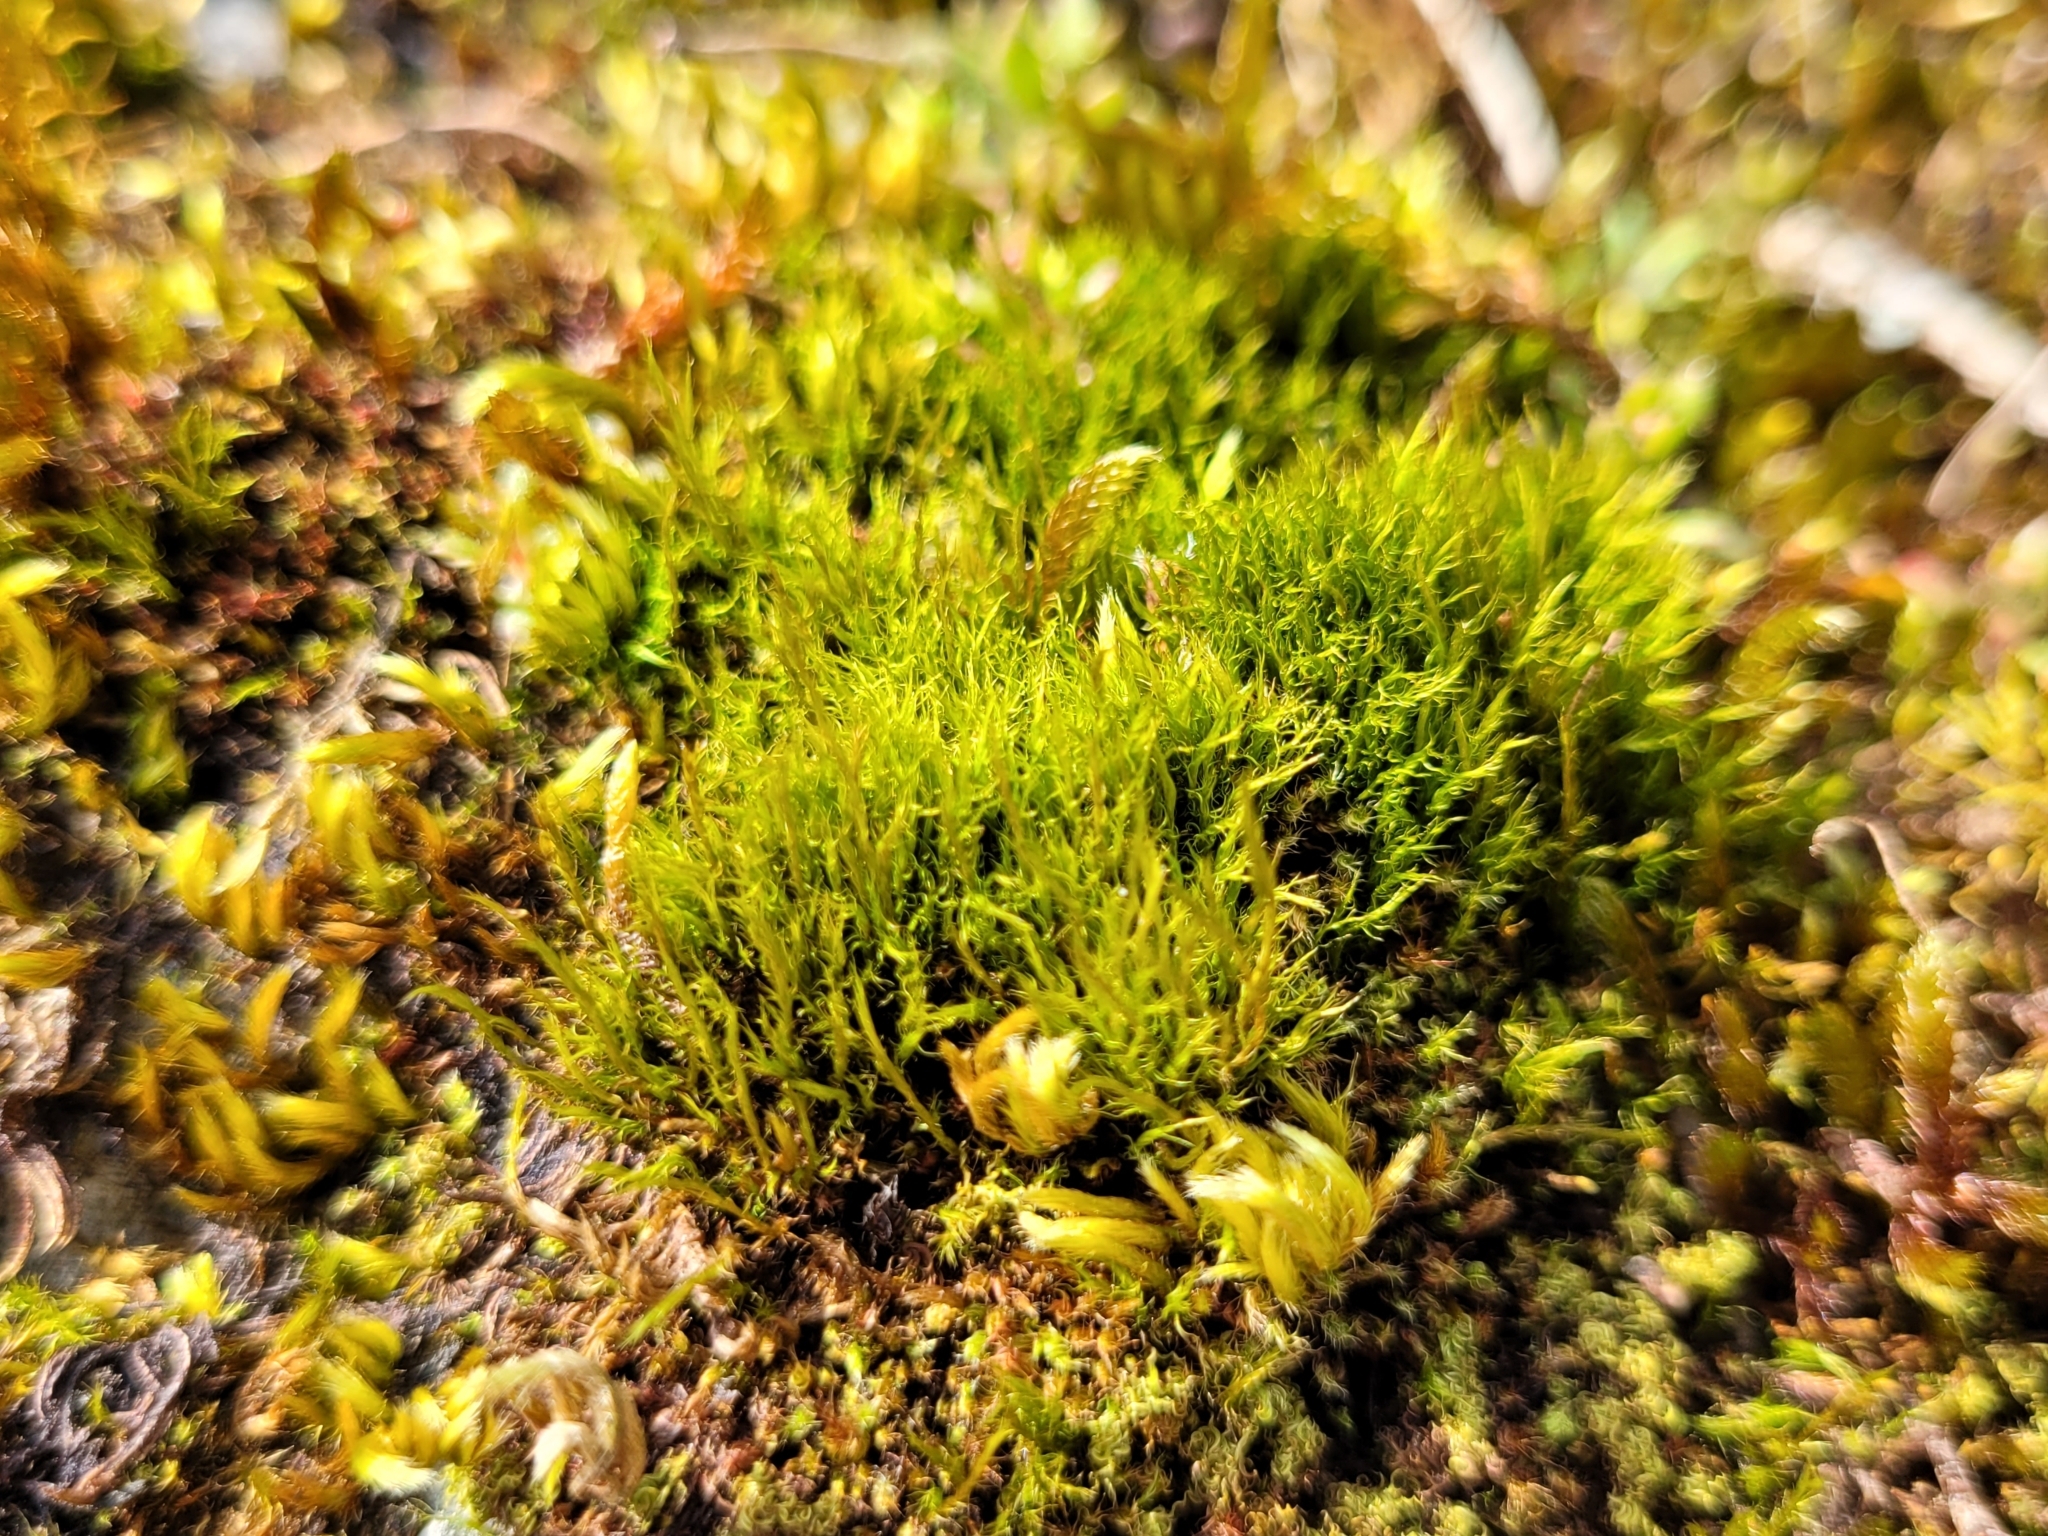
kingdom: Plantae
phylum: Bryophyta
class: Bryopsida
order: Scouleriales
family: Flexitrichaceae
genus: Flexitrichum
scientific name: Flexitrichum flexicaule
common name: Bendy ditrichum
